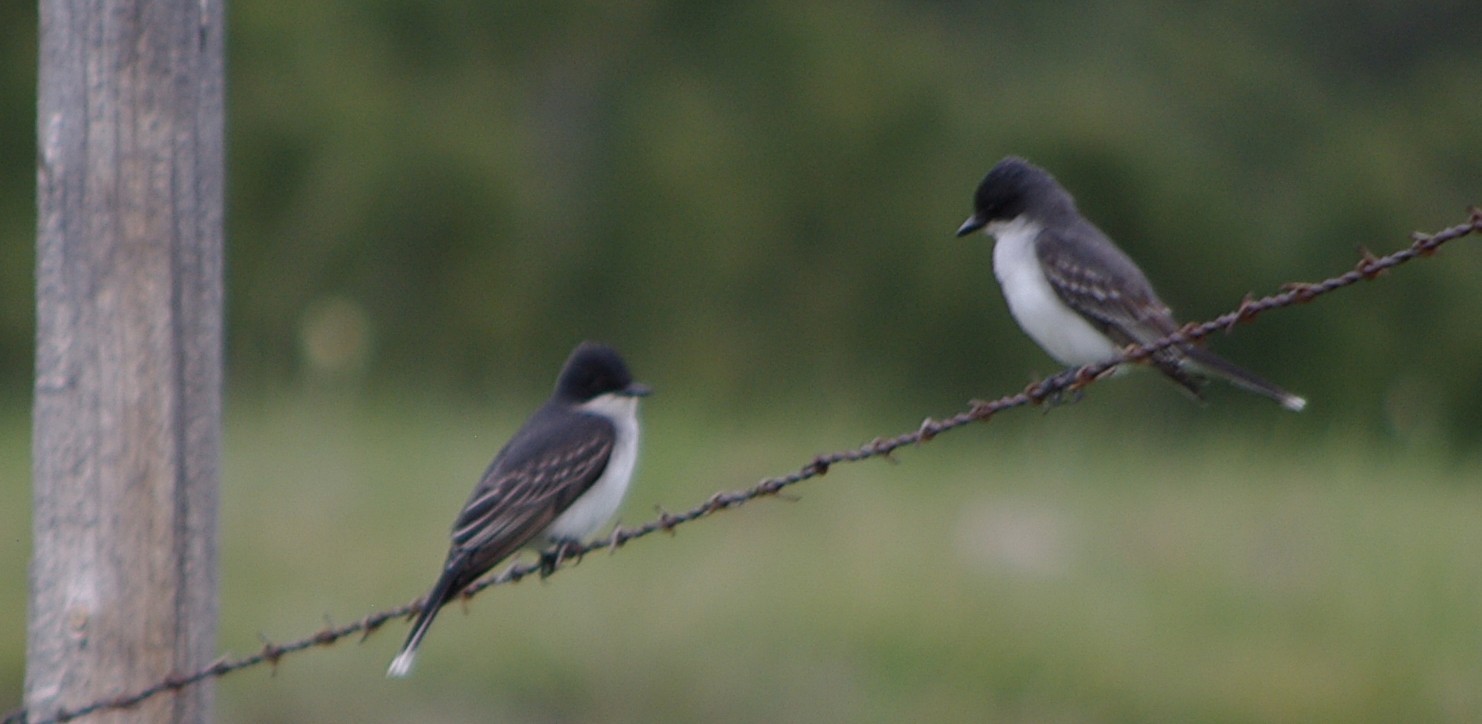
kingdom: Animalia
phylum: Chordata
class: Aves
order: Passeriformes
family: Tyrannidae
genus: Tyrannus
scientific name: Tyrannus tyrannus
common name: Eastern kingbird
